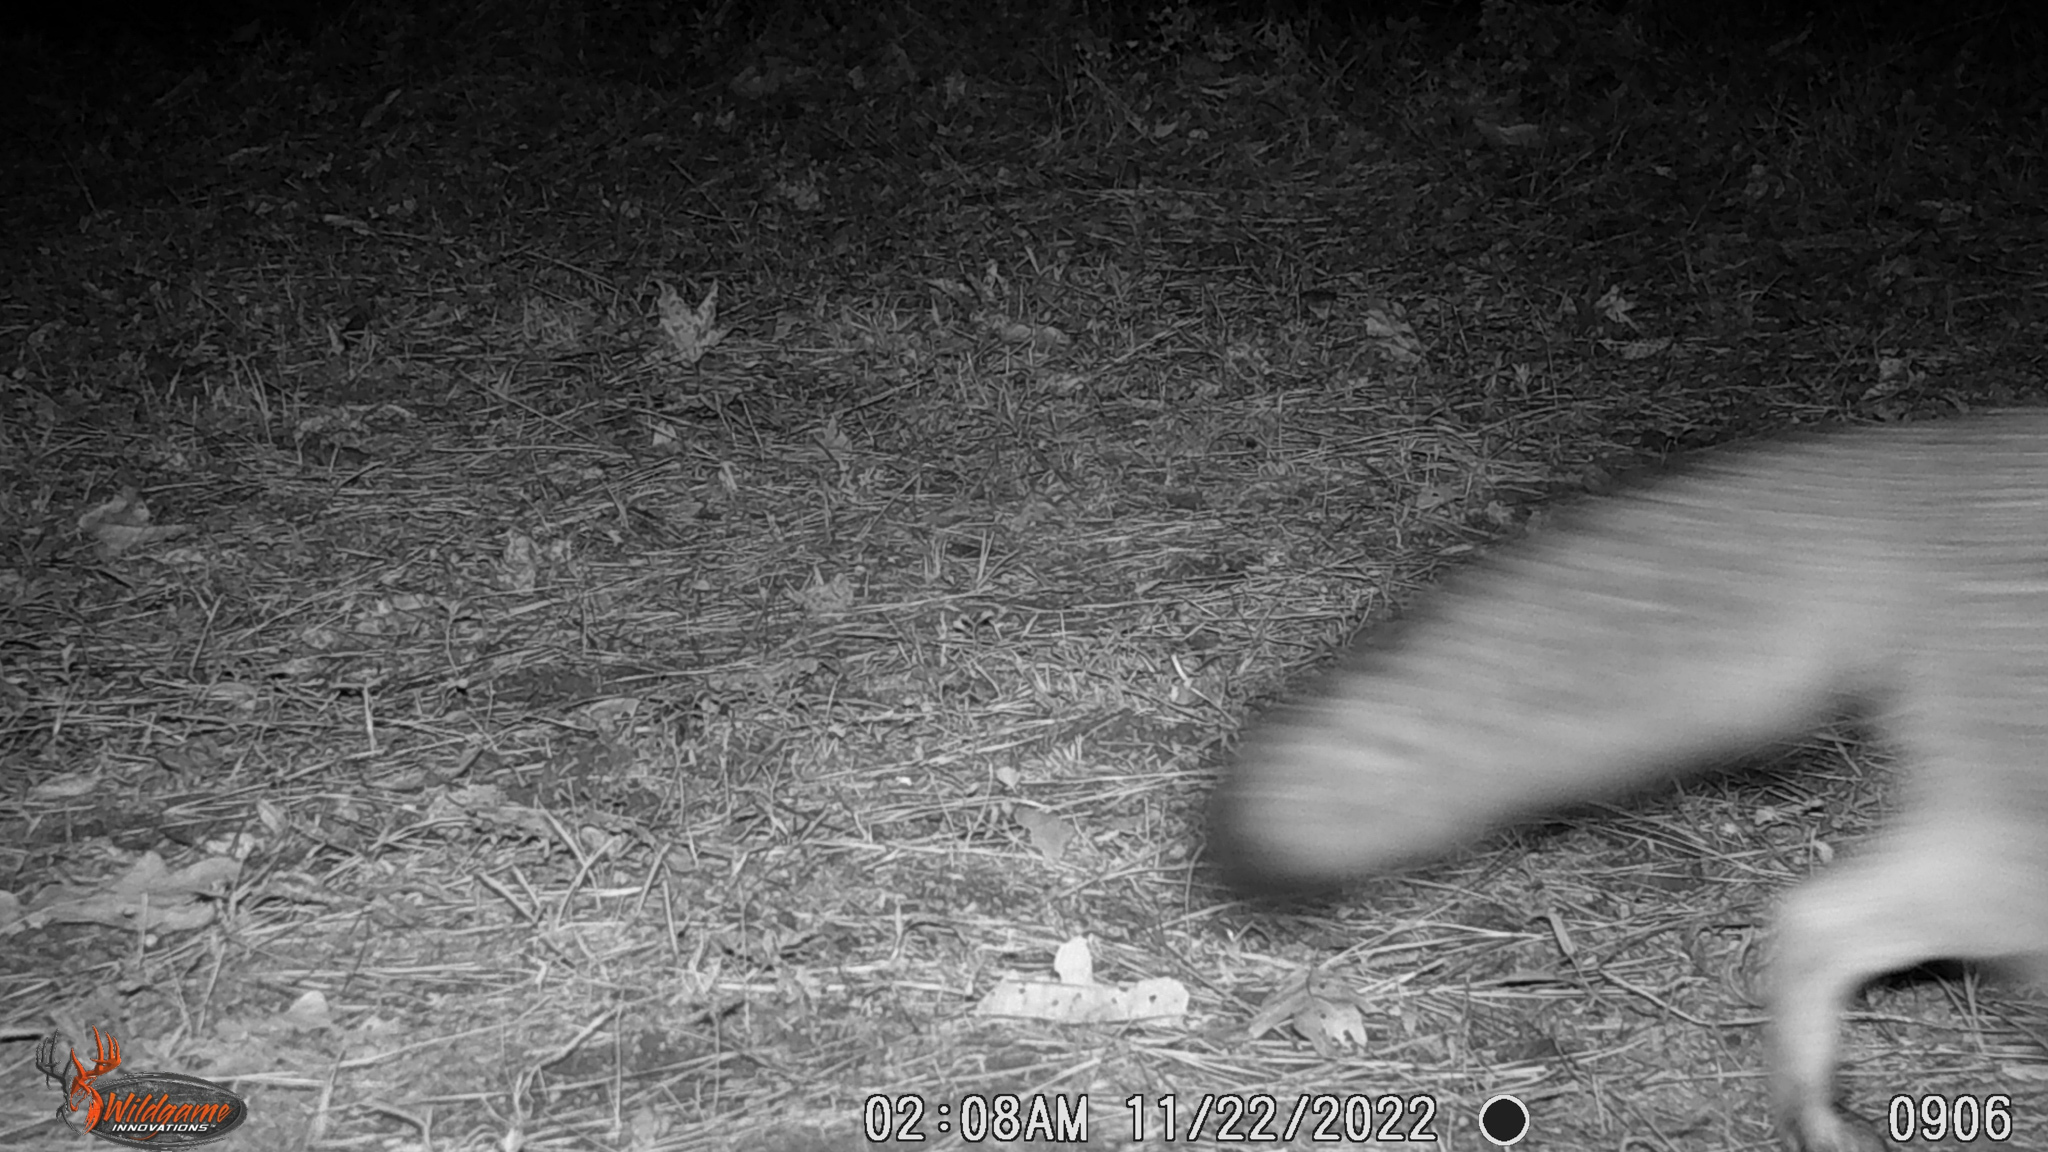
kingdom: Animalia
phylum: Chordata
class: Mammalia
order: Carnivora
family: Canidae
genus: Urocyon
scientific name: Urocyon cinereoargenteus
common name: Gray fox
